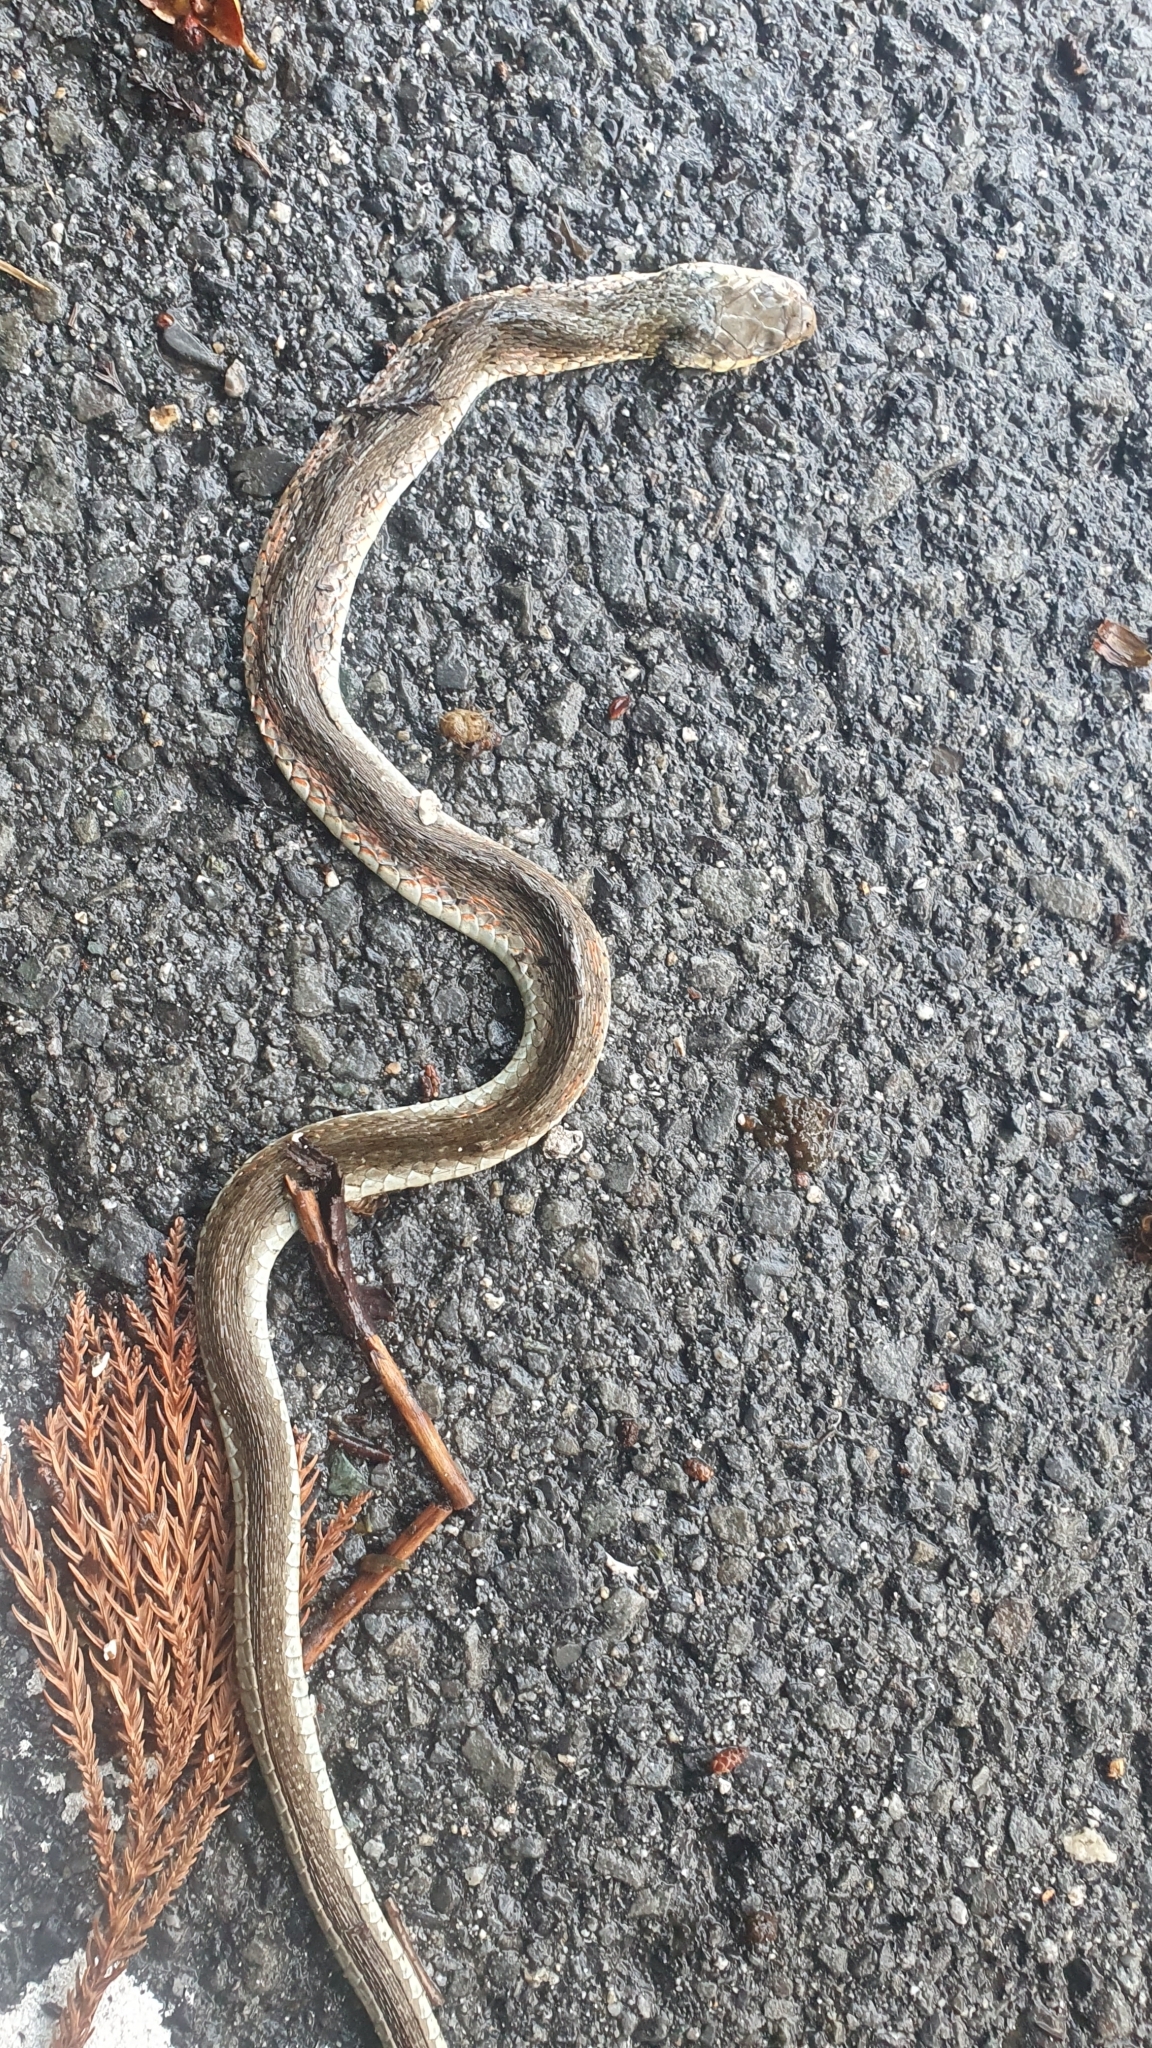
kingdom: Animalia
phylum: Chordata
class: Squamata
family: Colubridae
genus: Rhabdophis
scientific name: Rhabdophis tigrinus
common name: Tiger keelback
